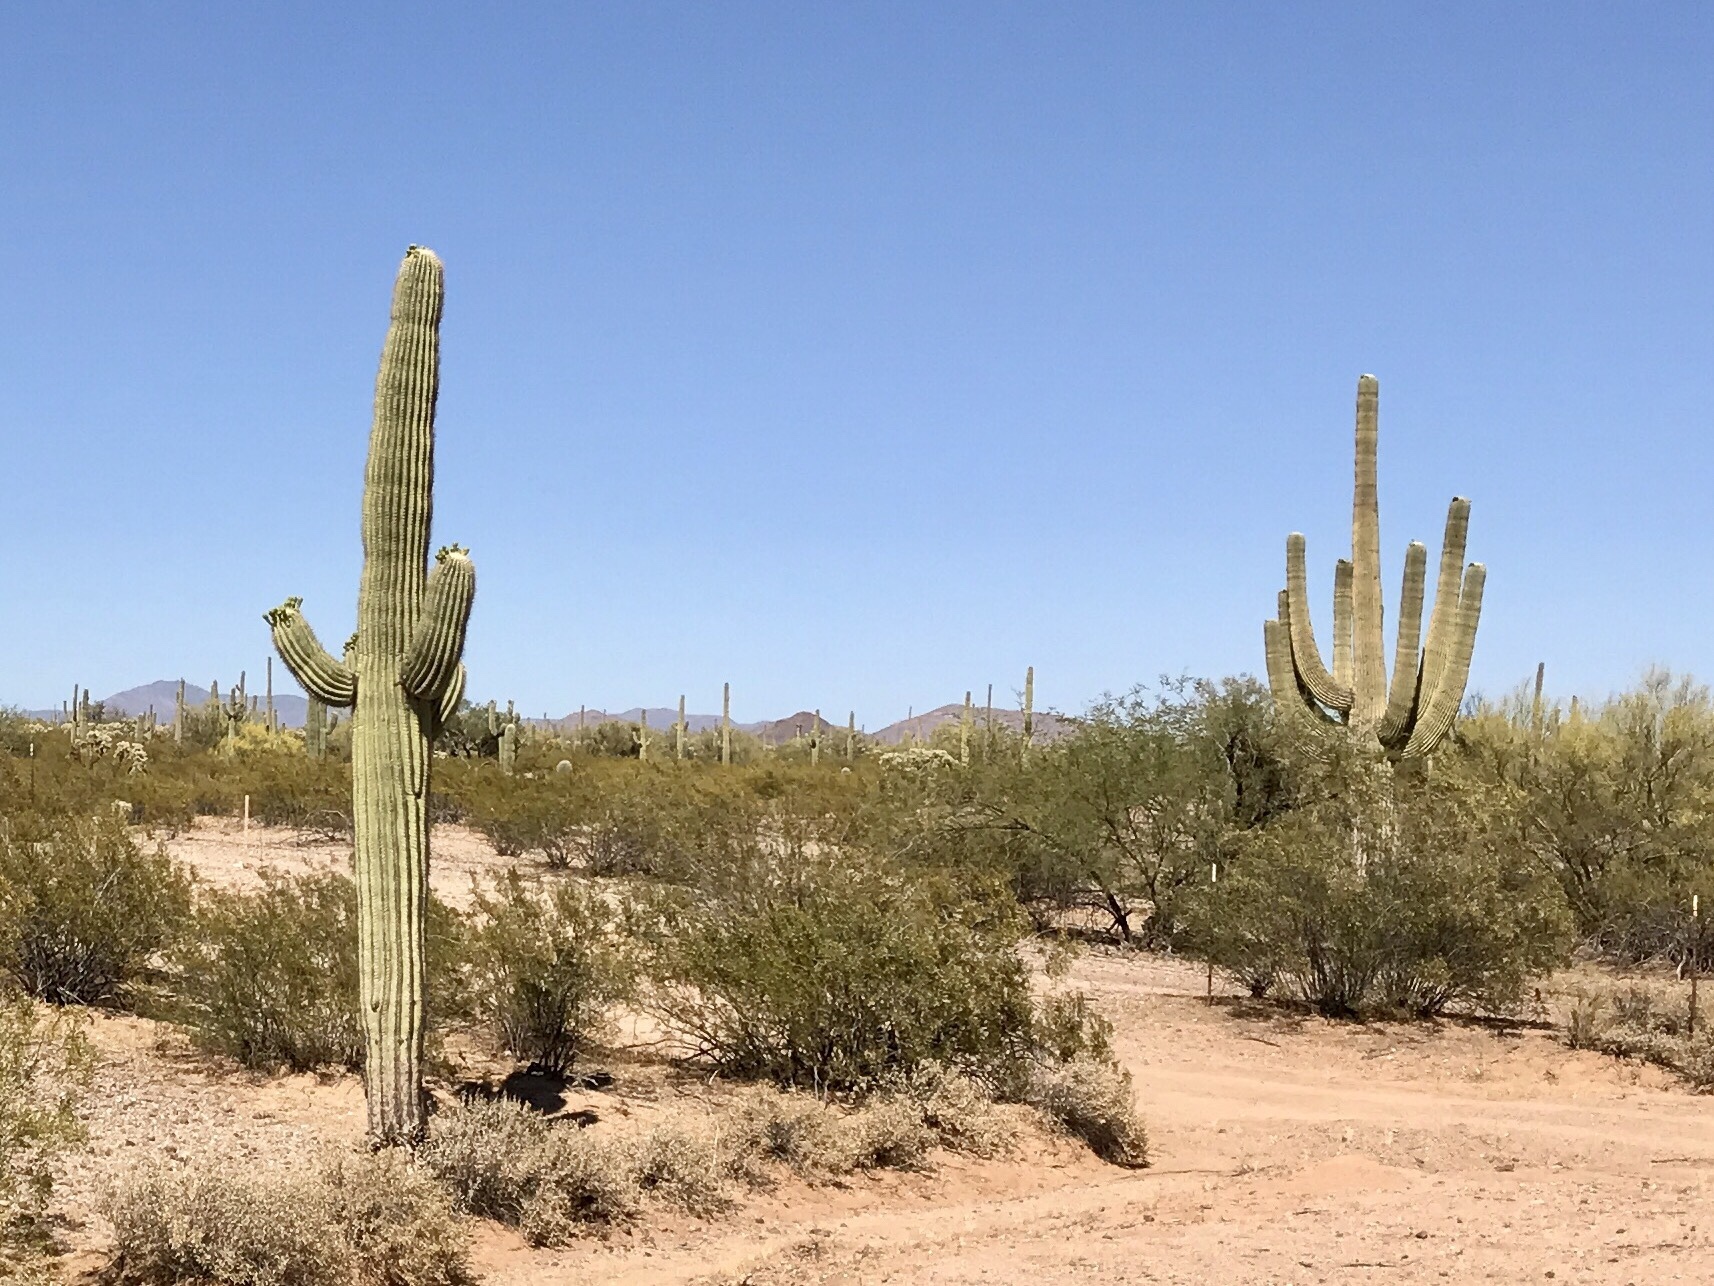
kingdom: Plantae
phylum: Tracheophyta
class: Magnoliopsida
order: Caryophyllales
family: Cactaceae
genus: Carnegiea
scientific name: Carnegiea gigantea
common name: Saguaro
